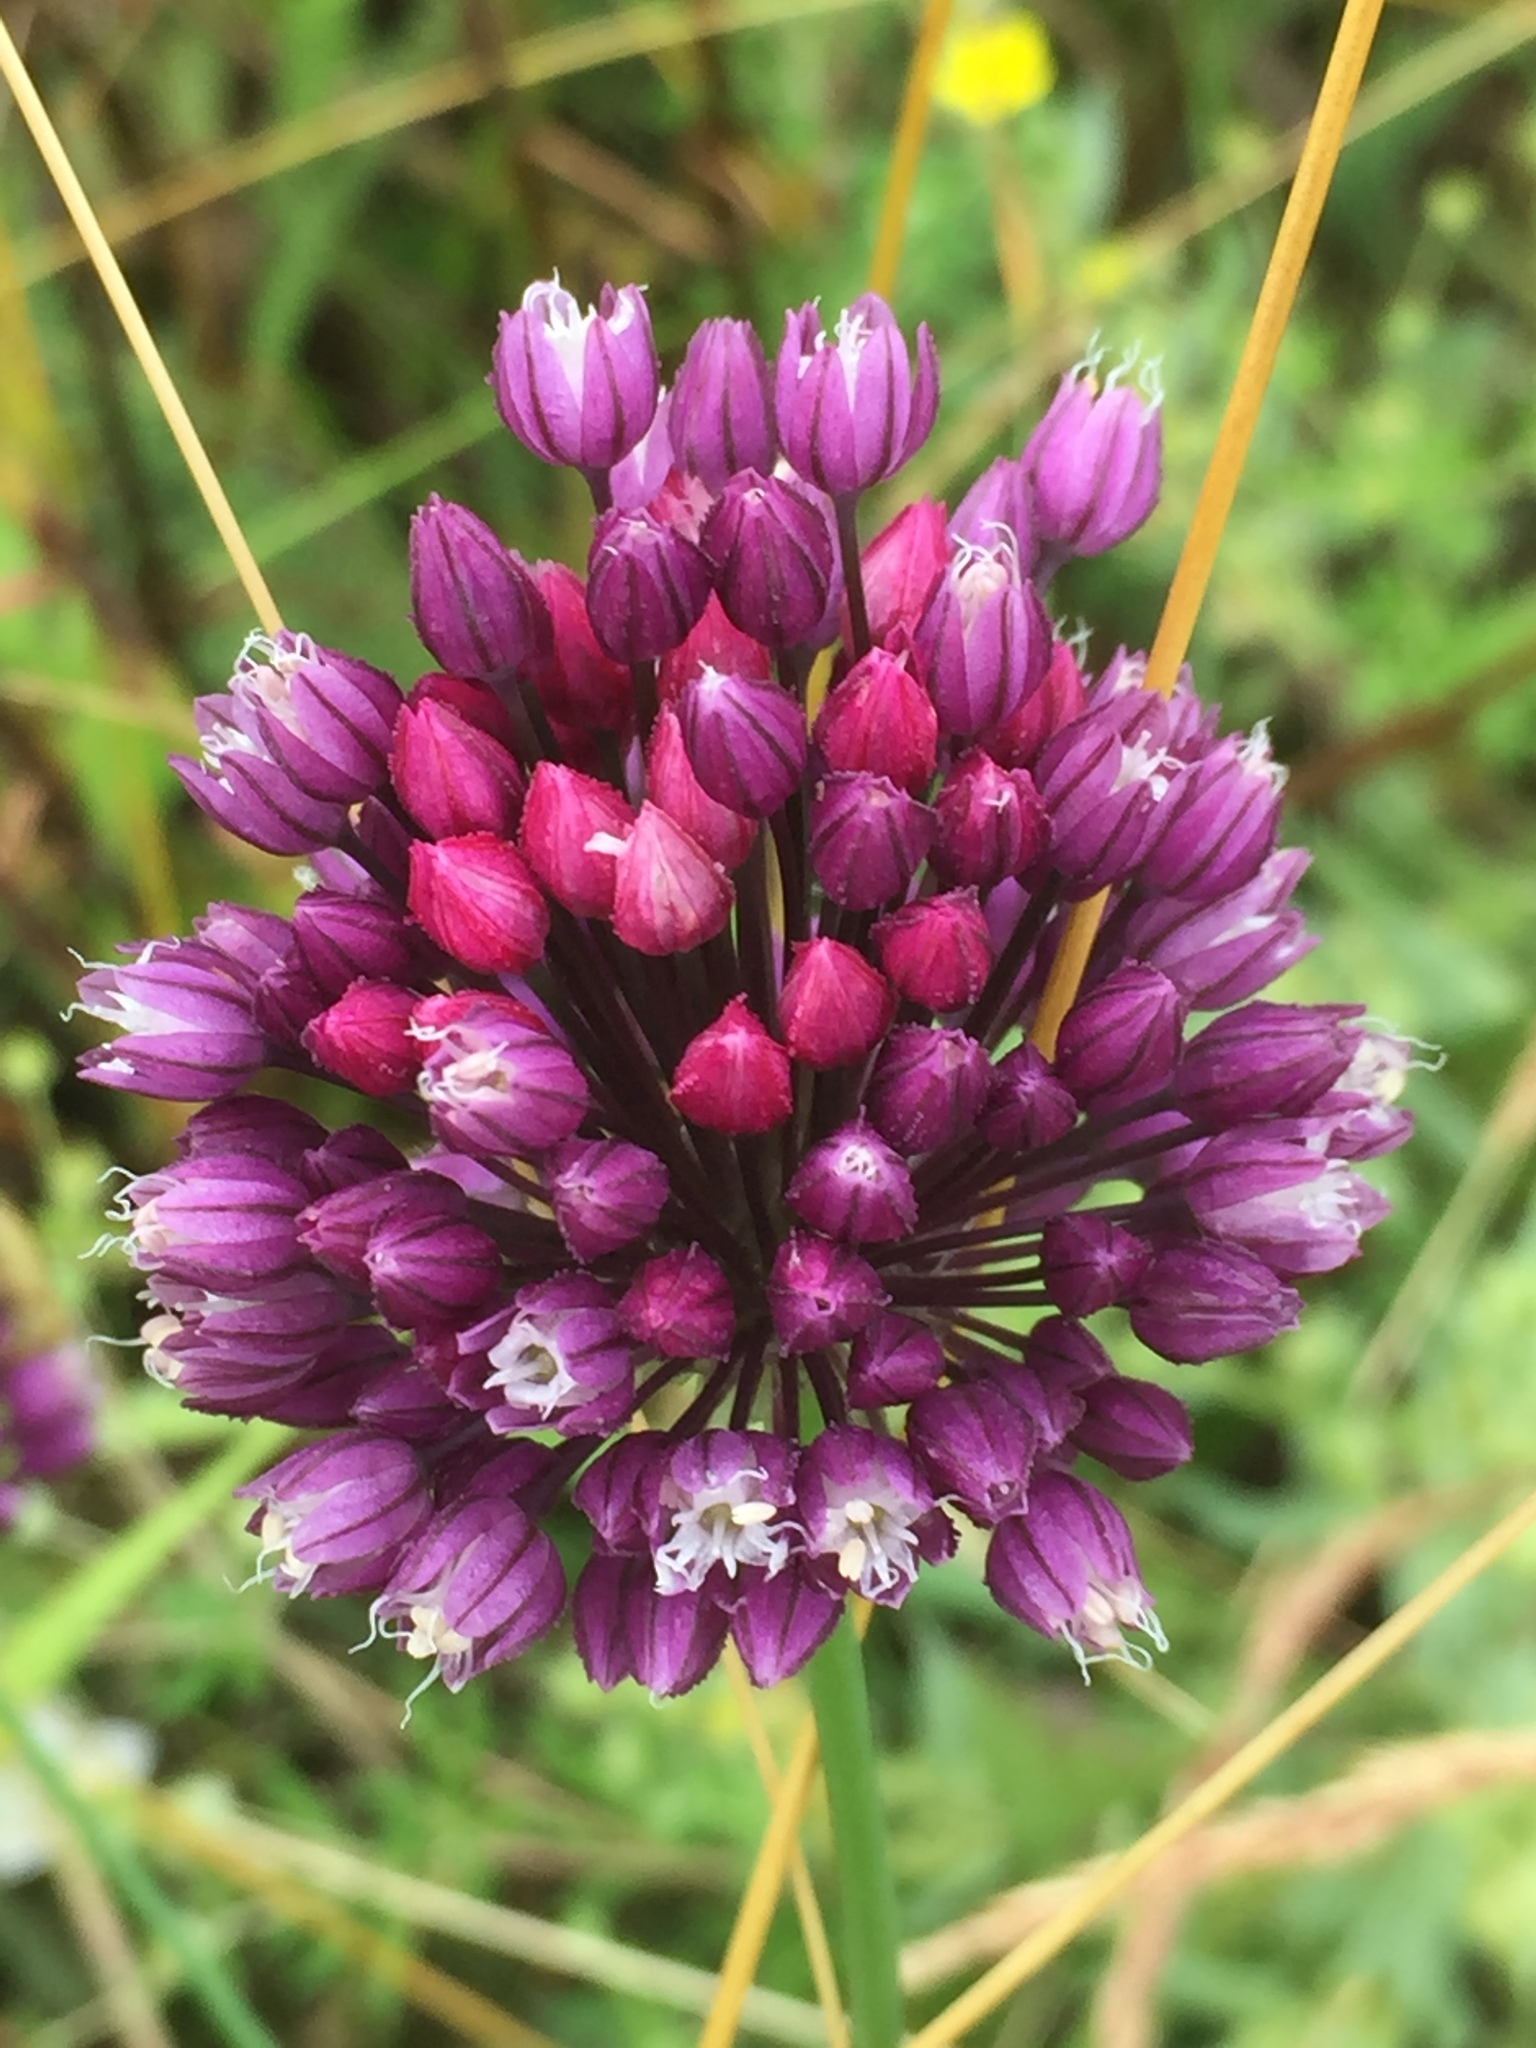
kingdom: Plantae
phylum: Tracheophyta
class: Liliopsida
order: Asparagales
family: Amaryllidaceae
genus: Allium
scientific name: Allium rotundum
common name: Sand leek
